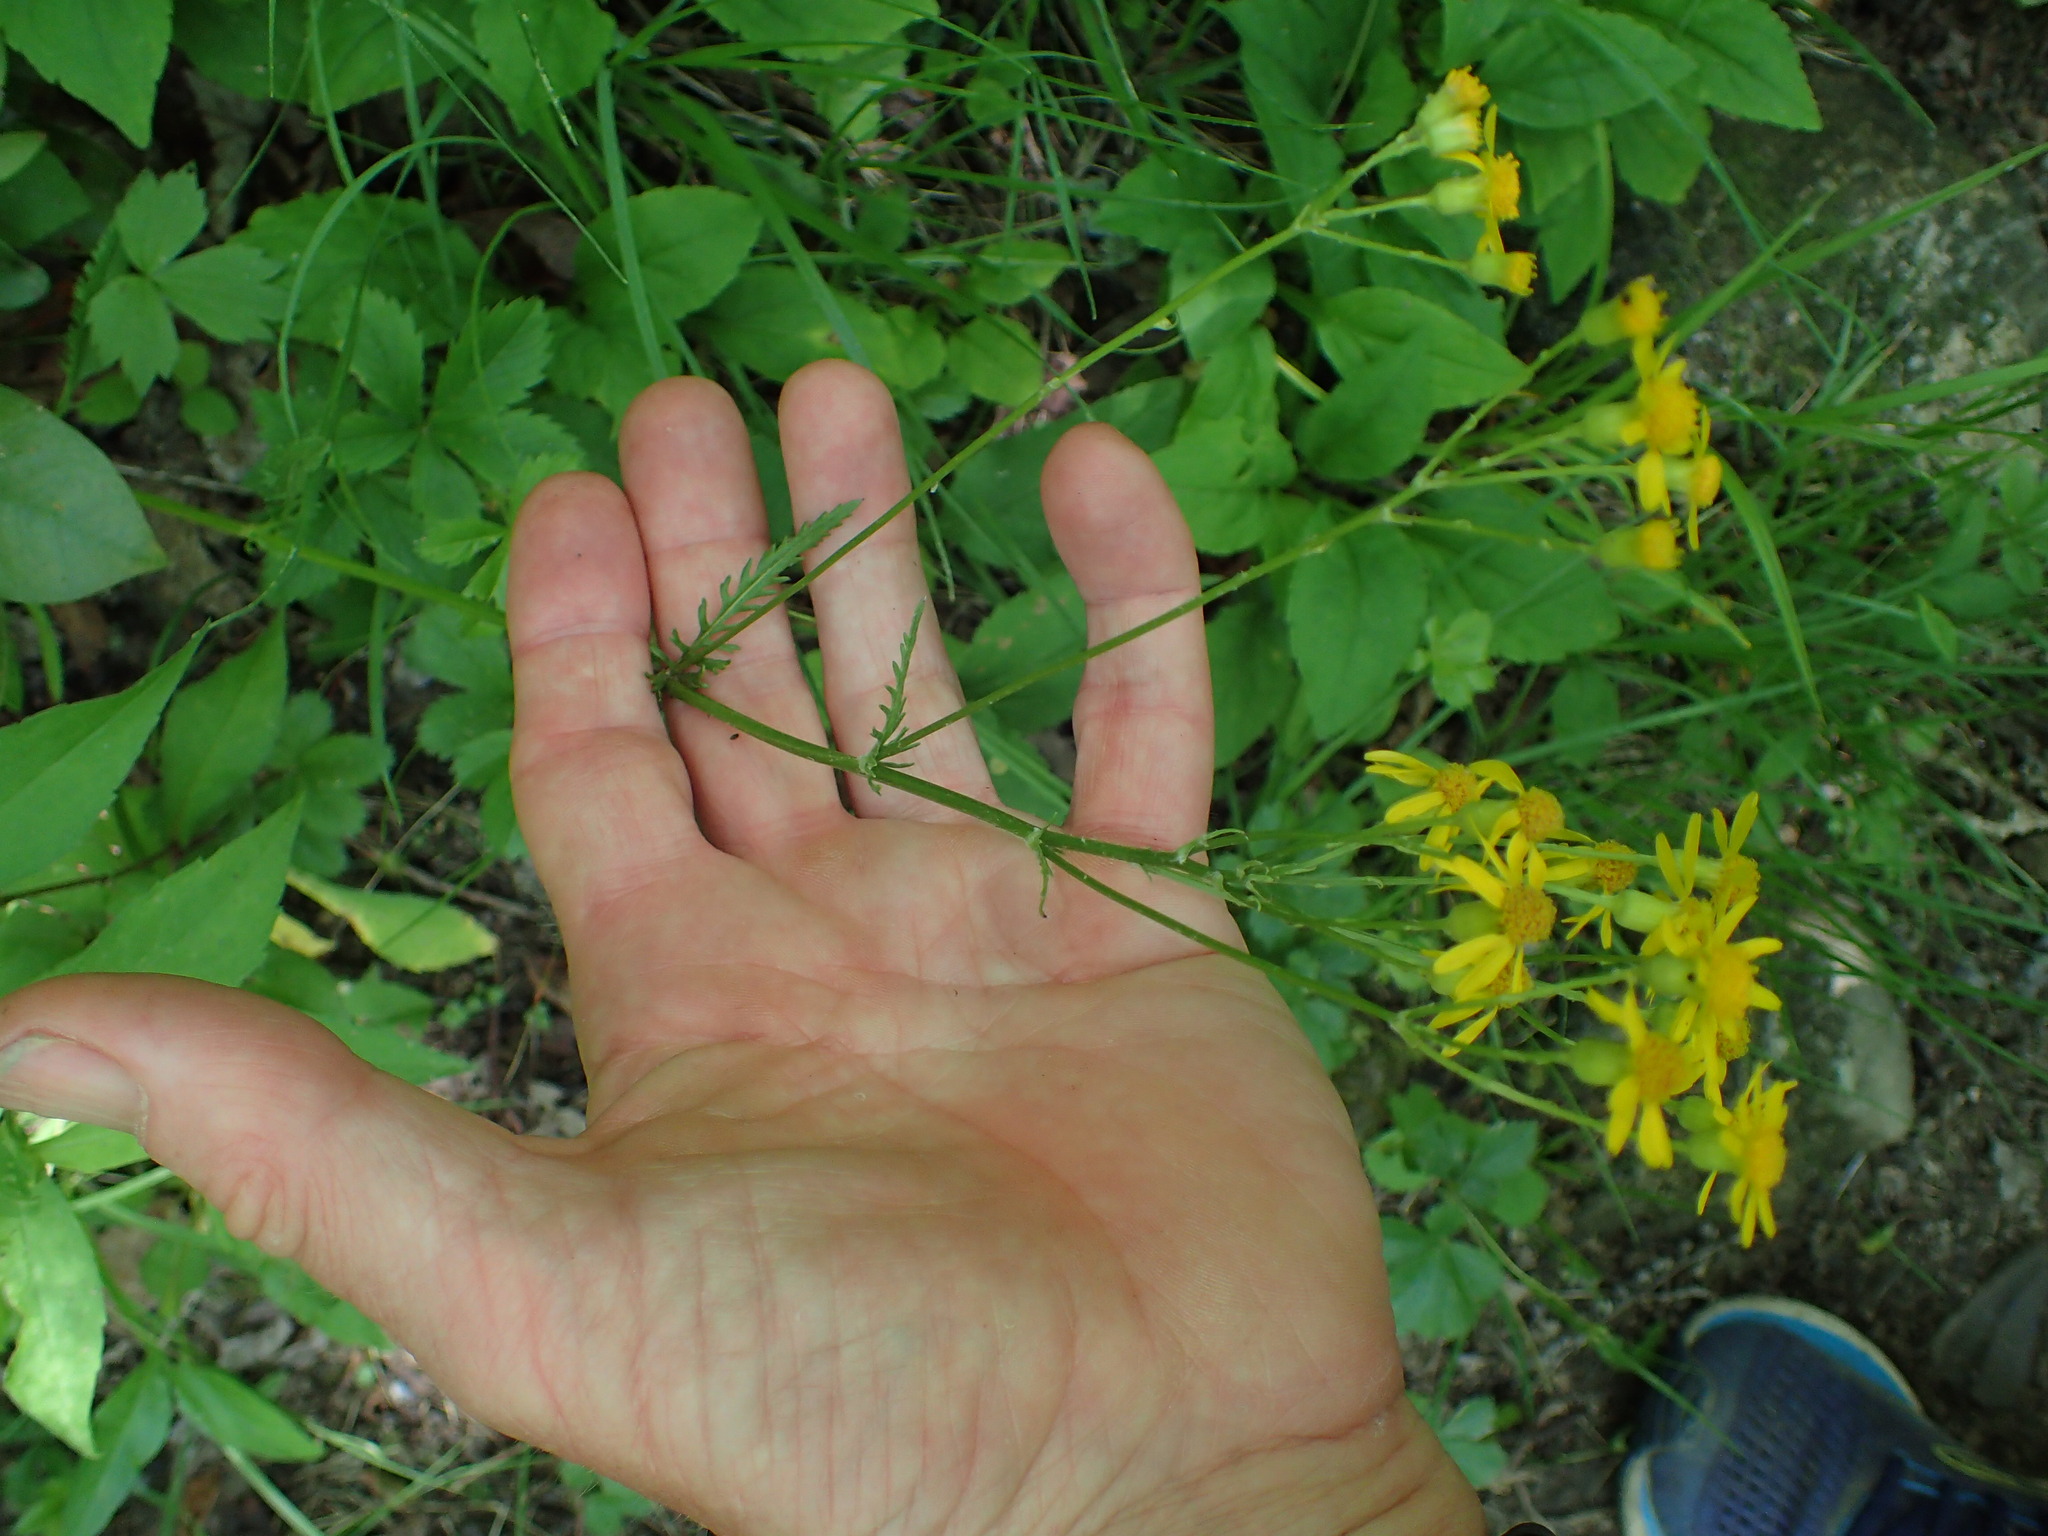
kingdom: Plantae
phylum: Tracheophyta
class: Magnoliopsida
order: Asterales
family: Asteraceae
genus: Packera
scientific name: Packera anonyma
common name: Small ragwort
